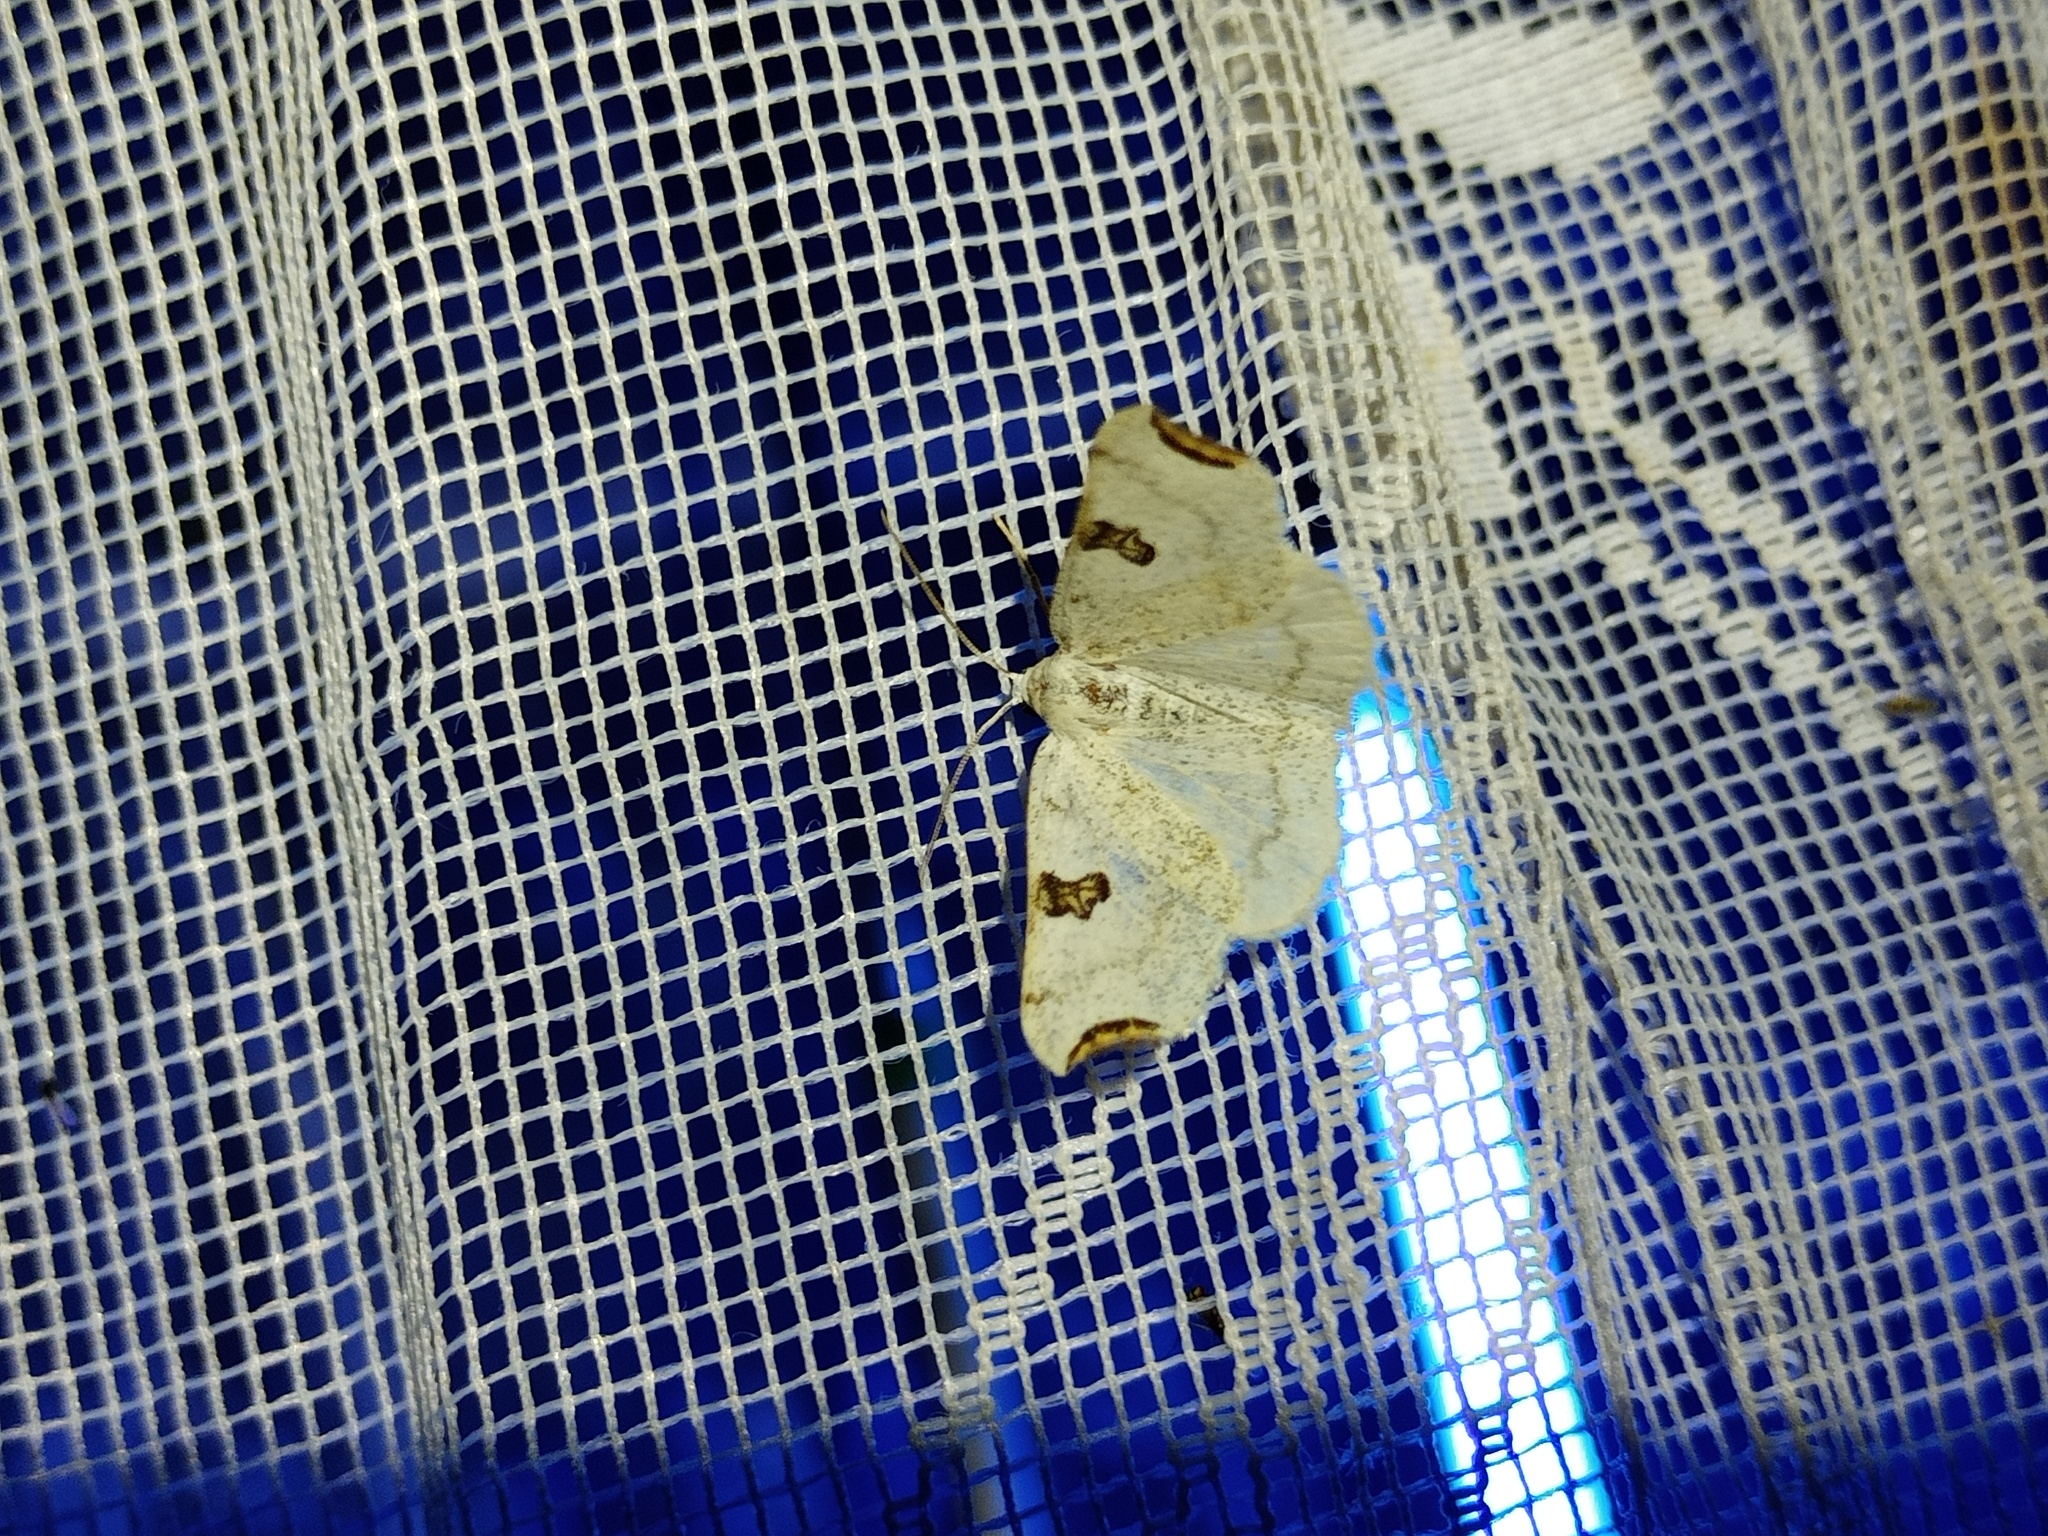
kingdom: Animalia
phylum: Arthropoda
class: Insecta
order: Lepidoptera
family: Geometridae
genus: Eilicrinia
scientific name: Eilicrinia cordiaria
